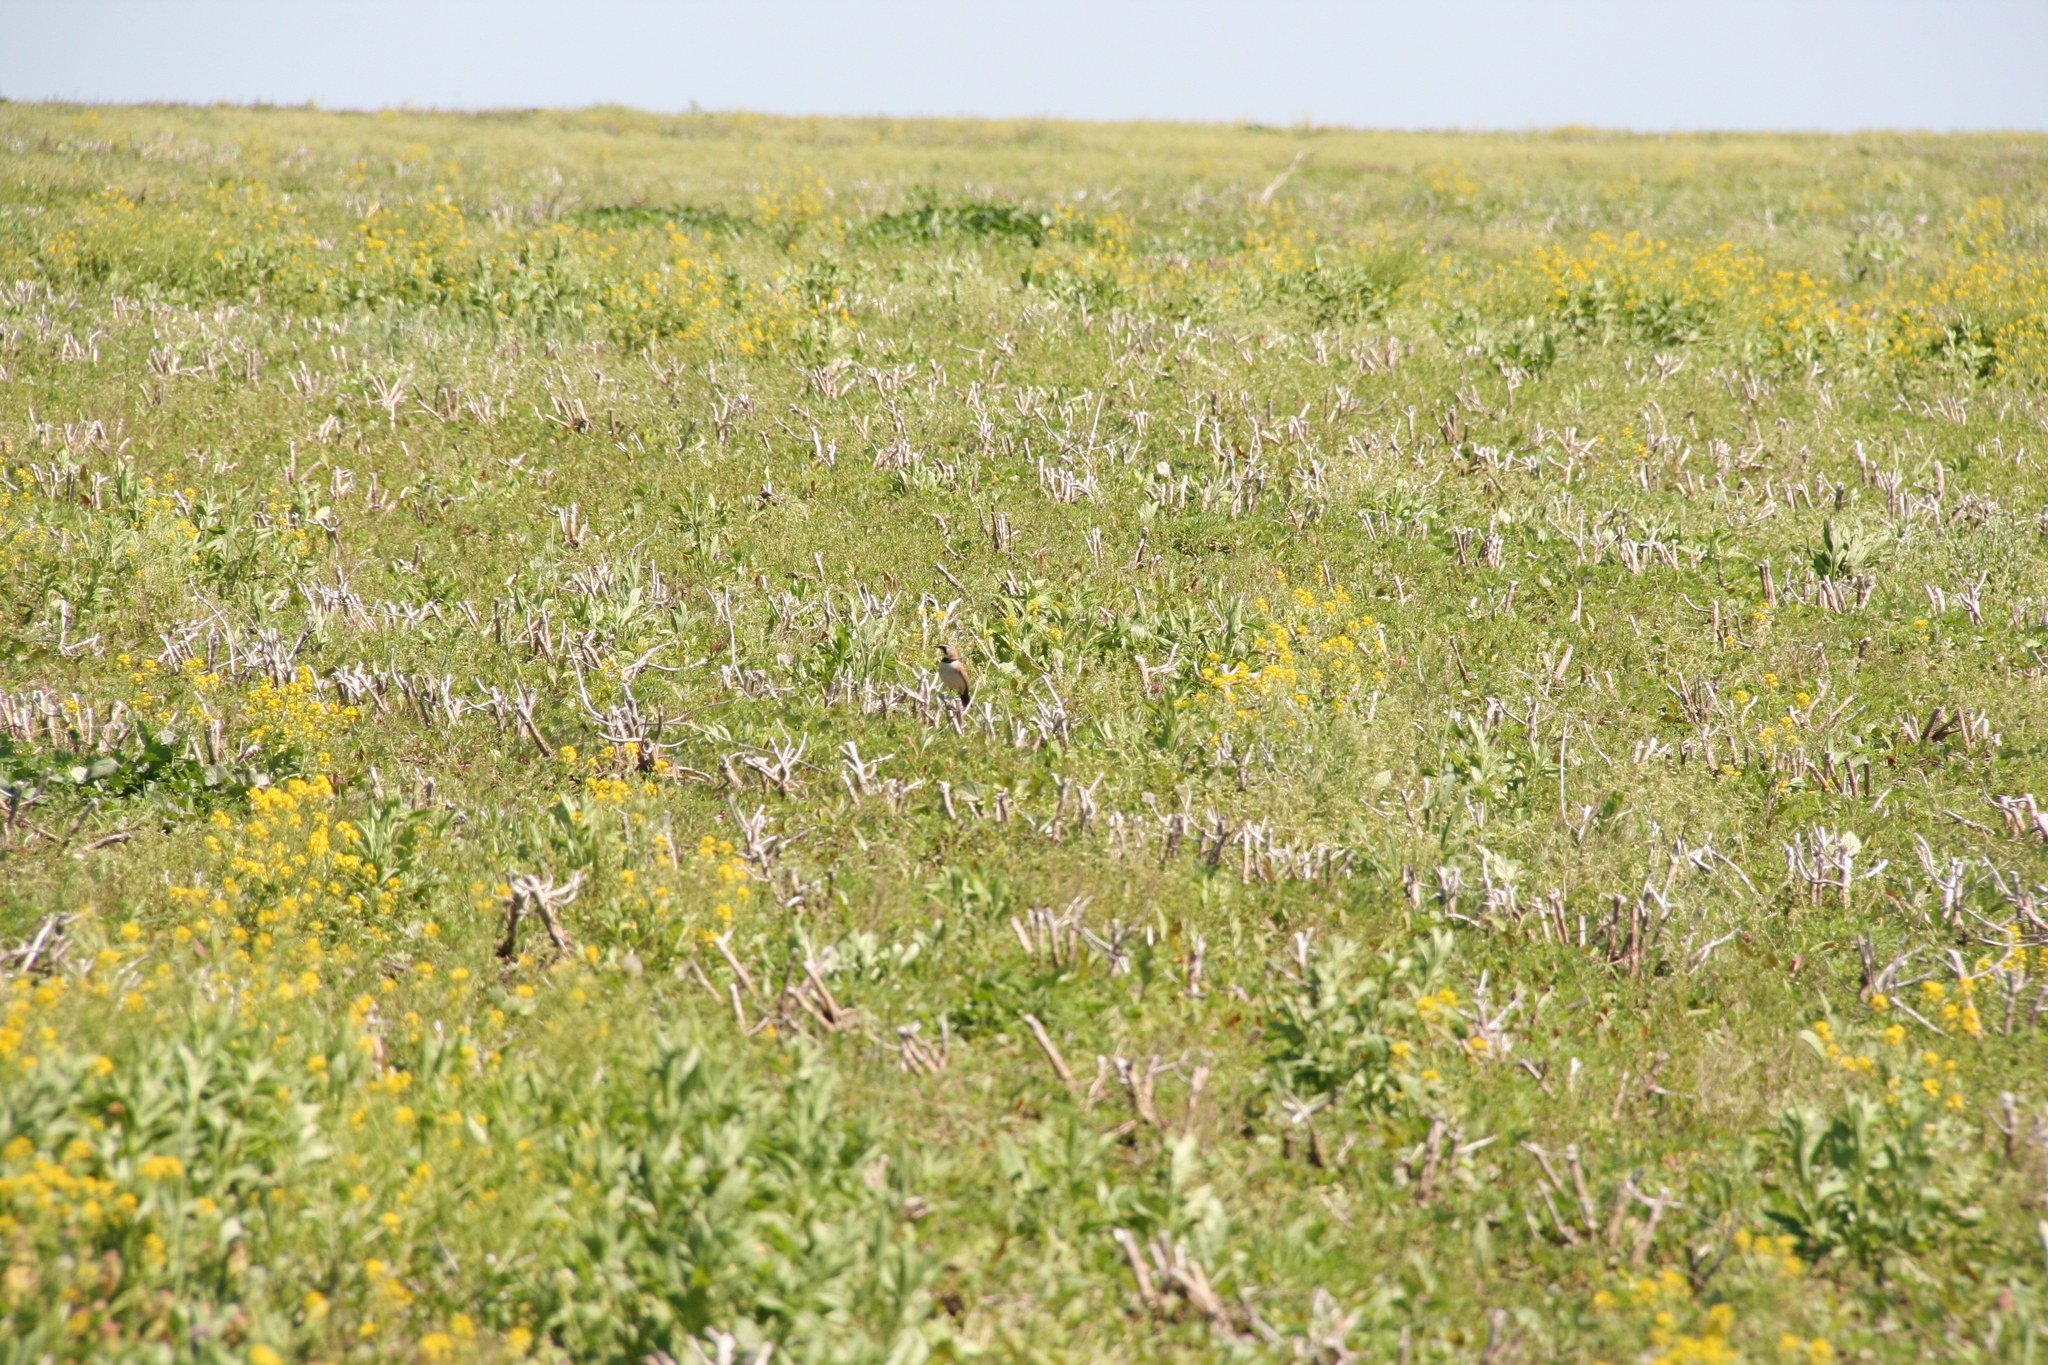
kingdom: Animalia
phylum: Chordata
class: Aves
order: Passeriformes
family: Alaudidae
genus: Eremophila
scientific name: Eremophila alpestris
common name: Horned lark
